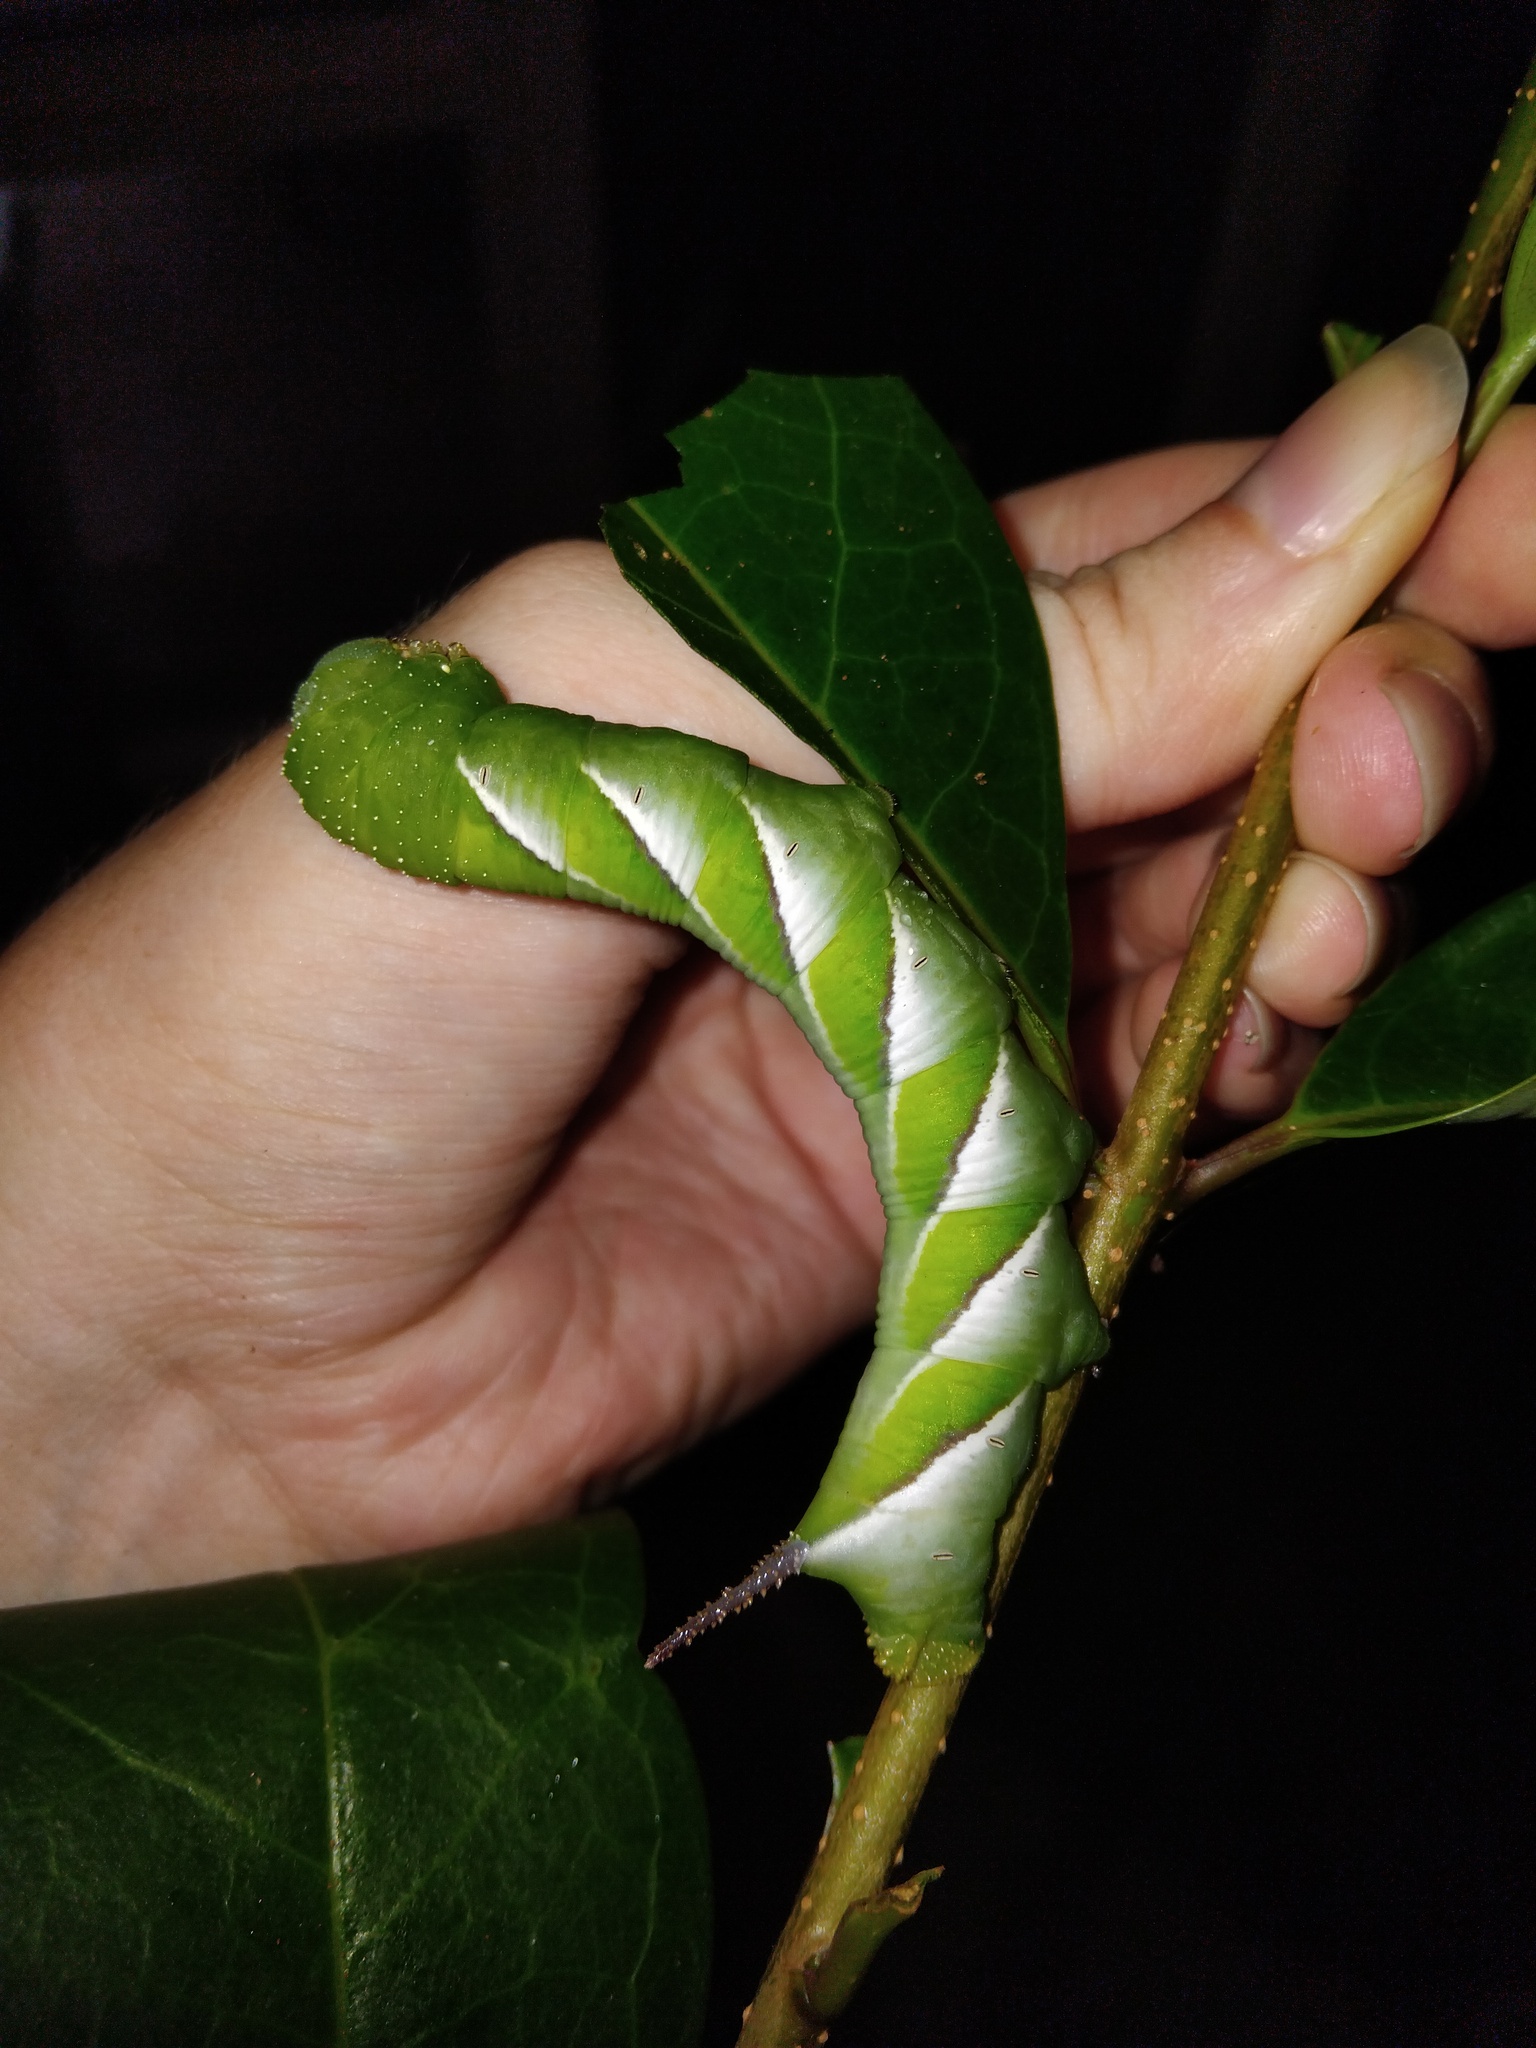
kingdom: Animalia
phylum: Arthropoda
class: Insecta
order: Lepidoptera
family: Sphingidae
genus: Psilogramma
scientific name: Psilogramma casuarinae
